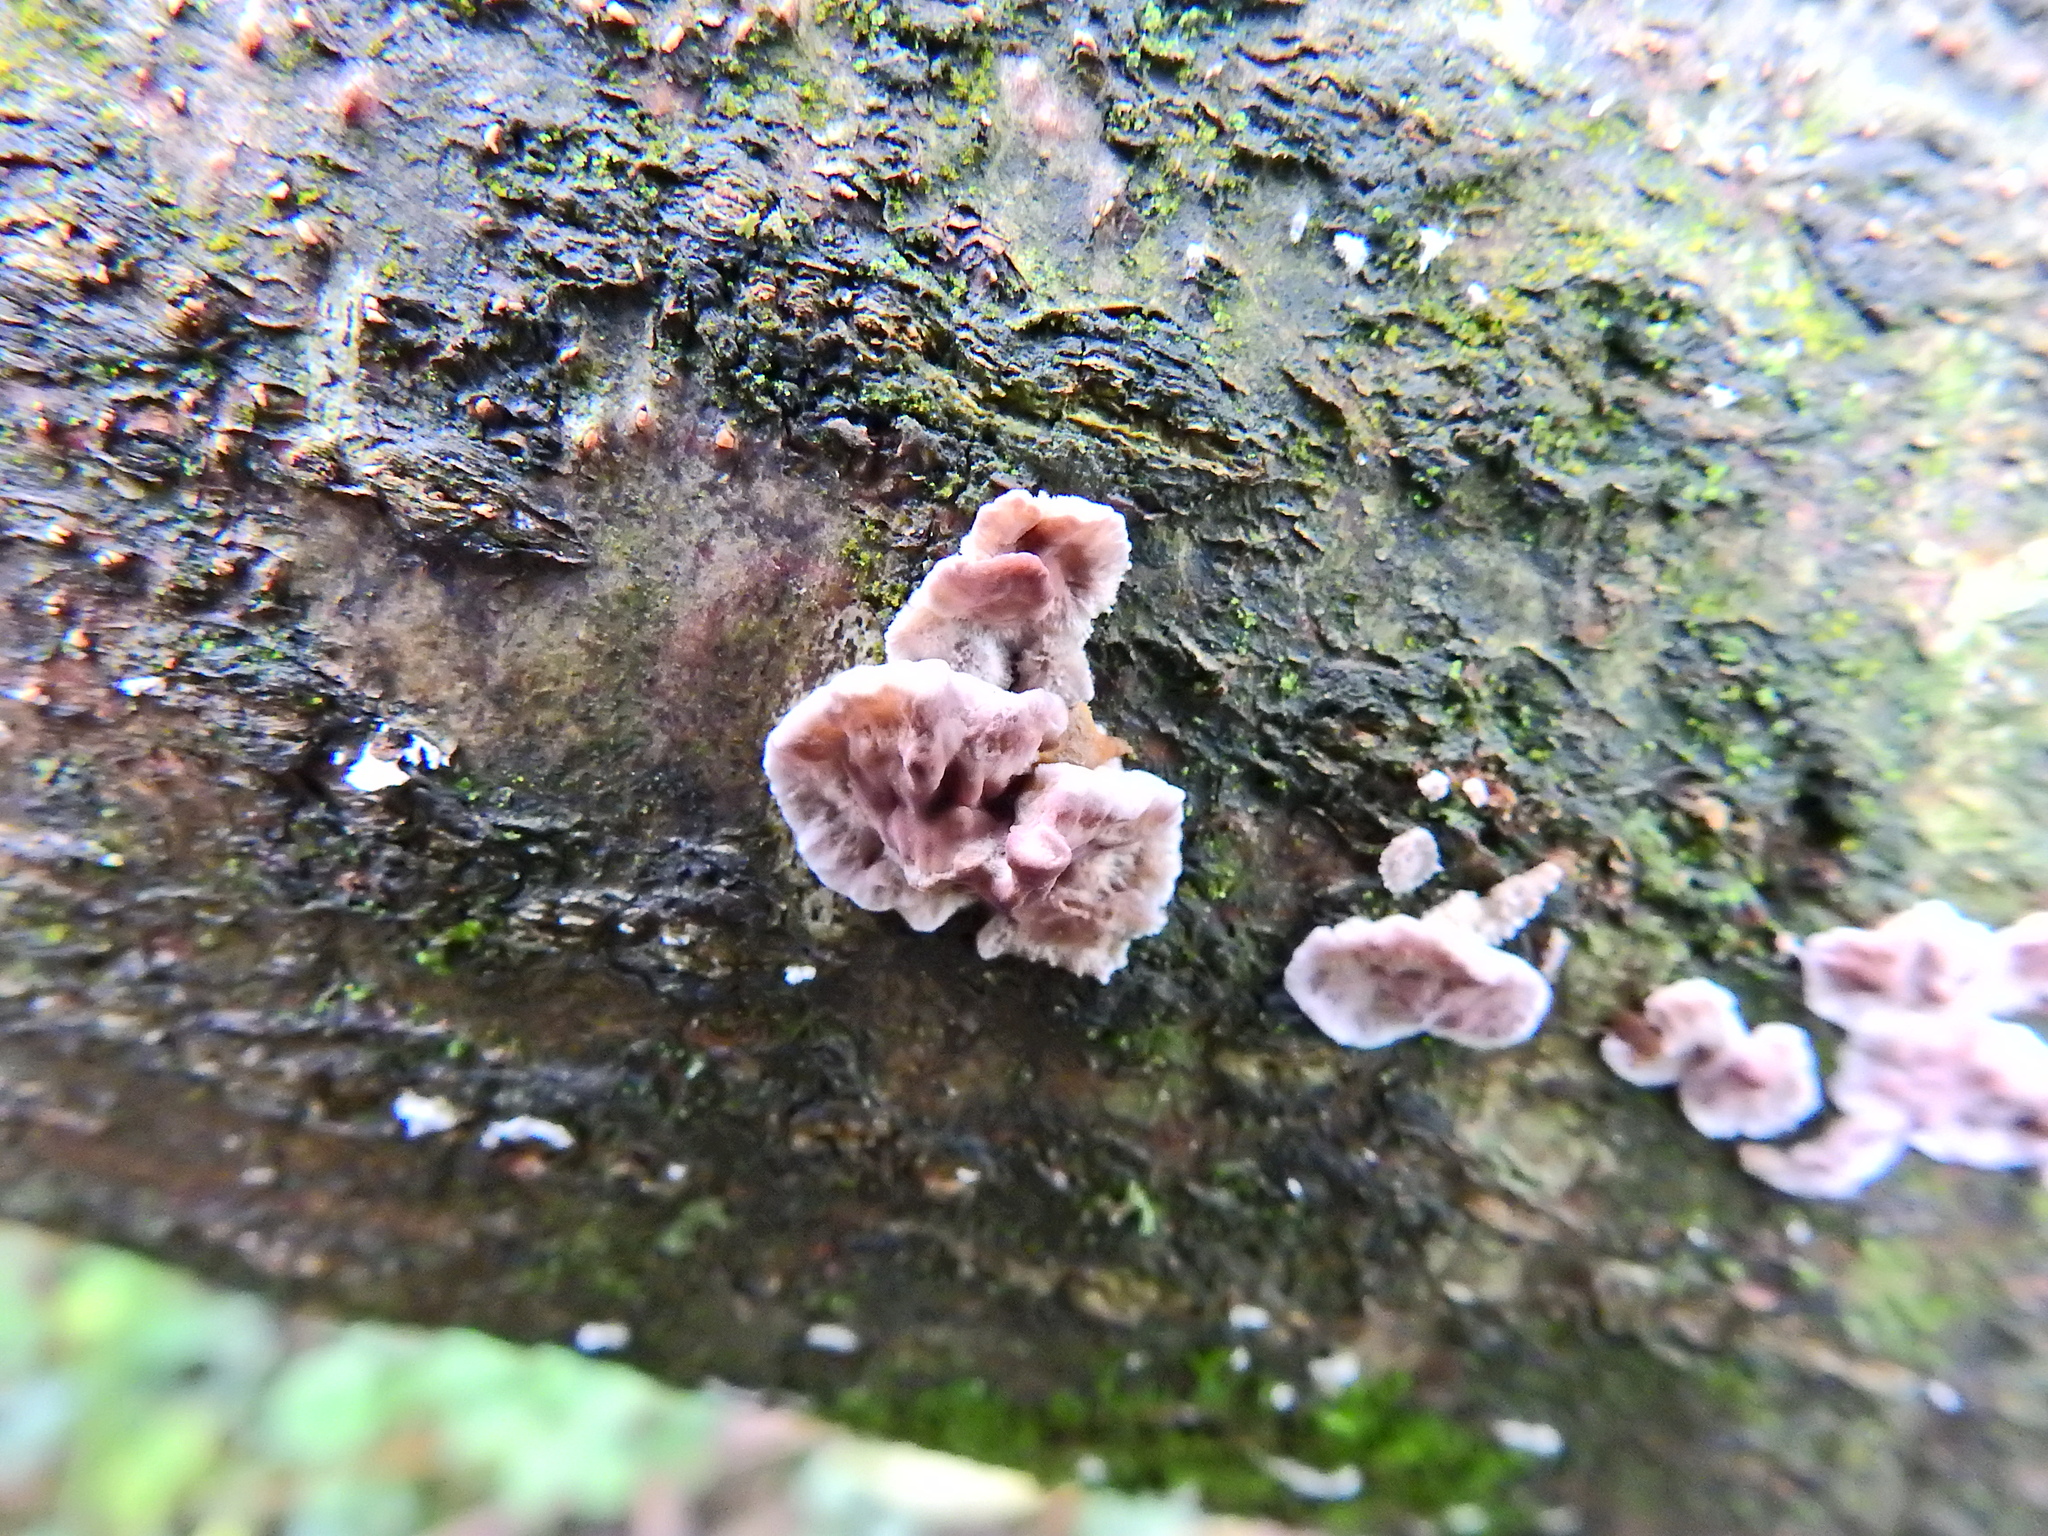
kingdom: Fungi
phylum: Basidiomycota
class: Agaricomycetes
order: Agaricales
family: Cyphellaceae
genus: Chondrostereum
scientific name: Chondrostereum purpureum
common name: Silver leaf disease
